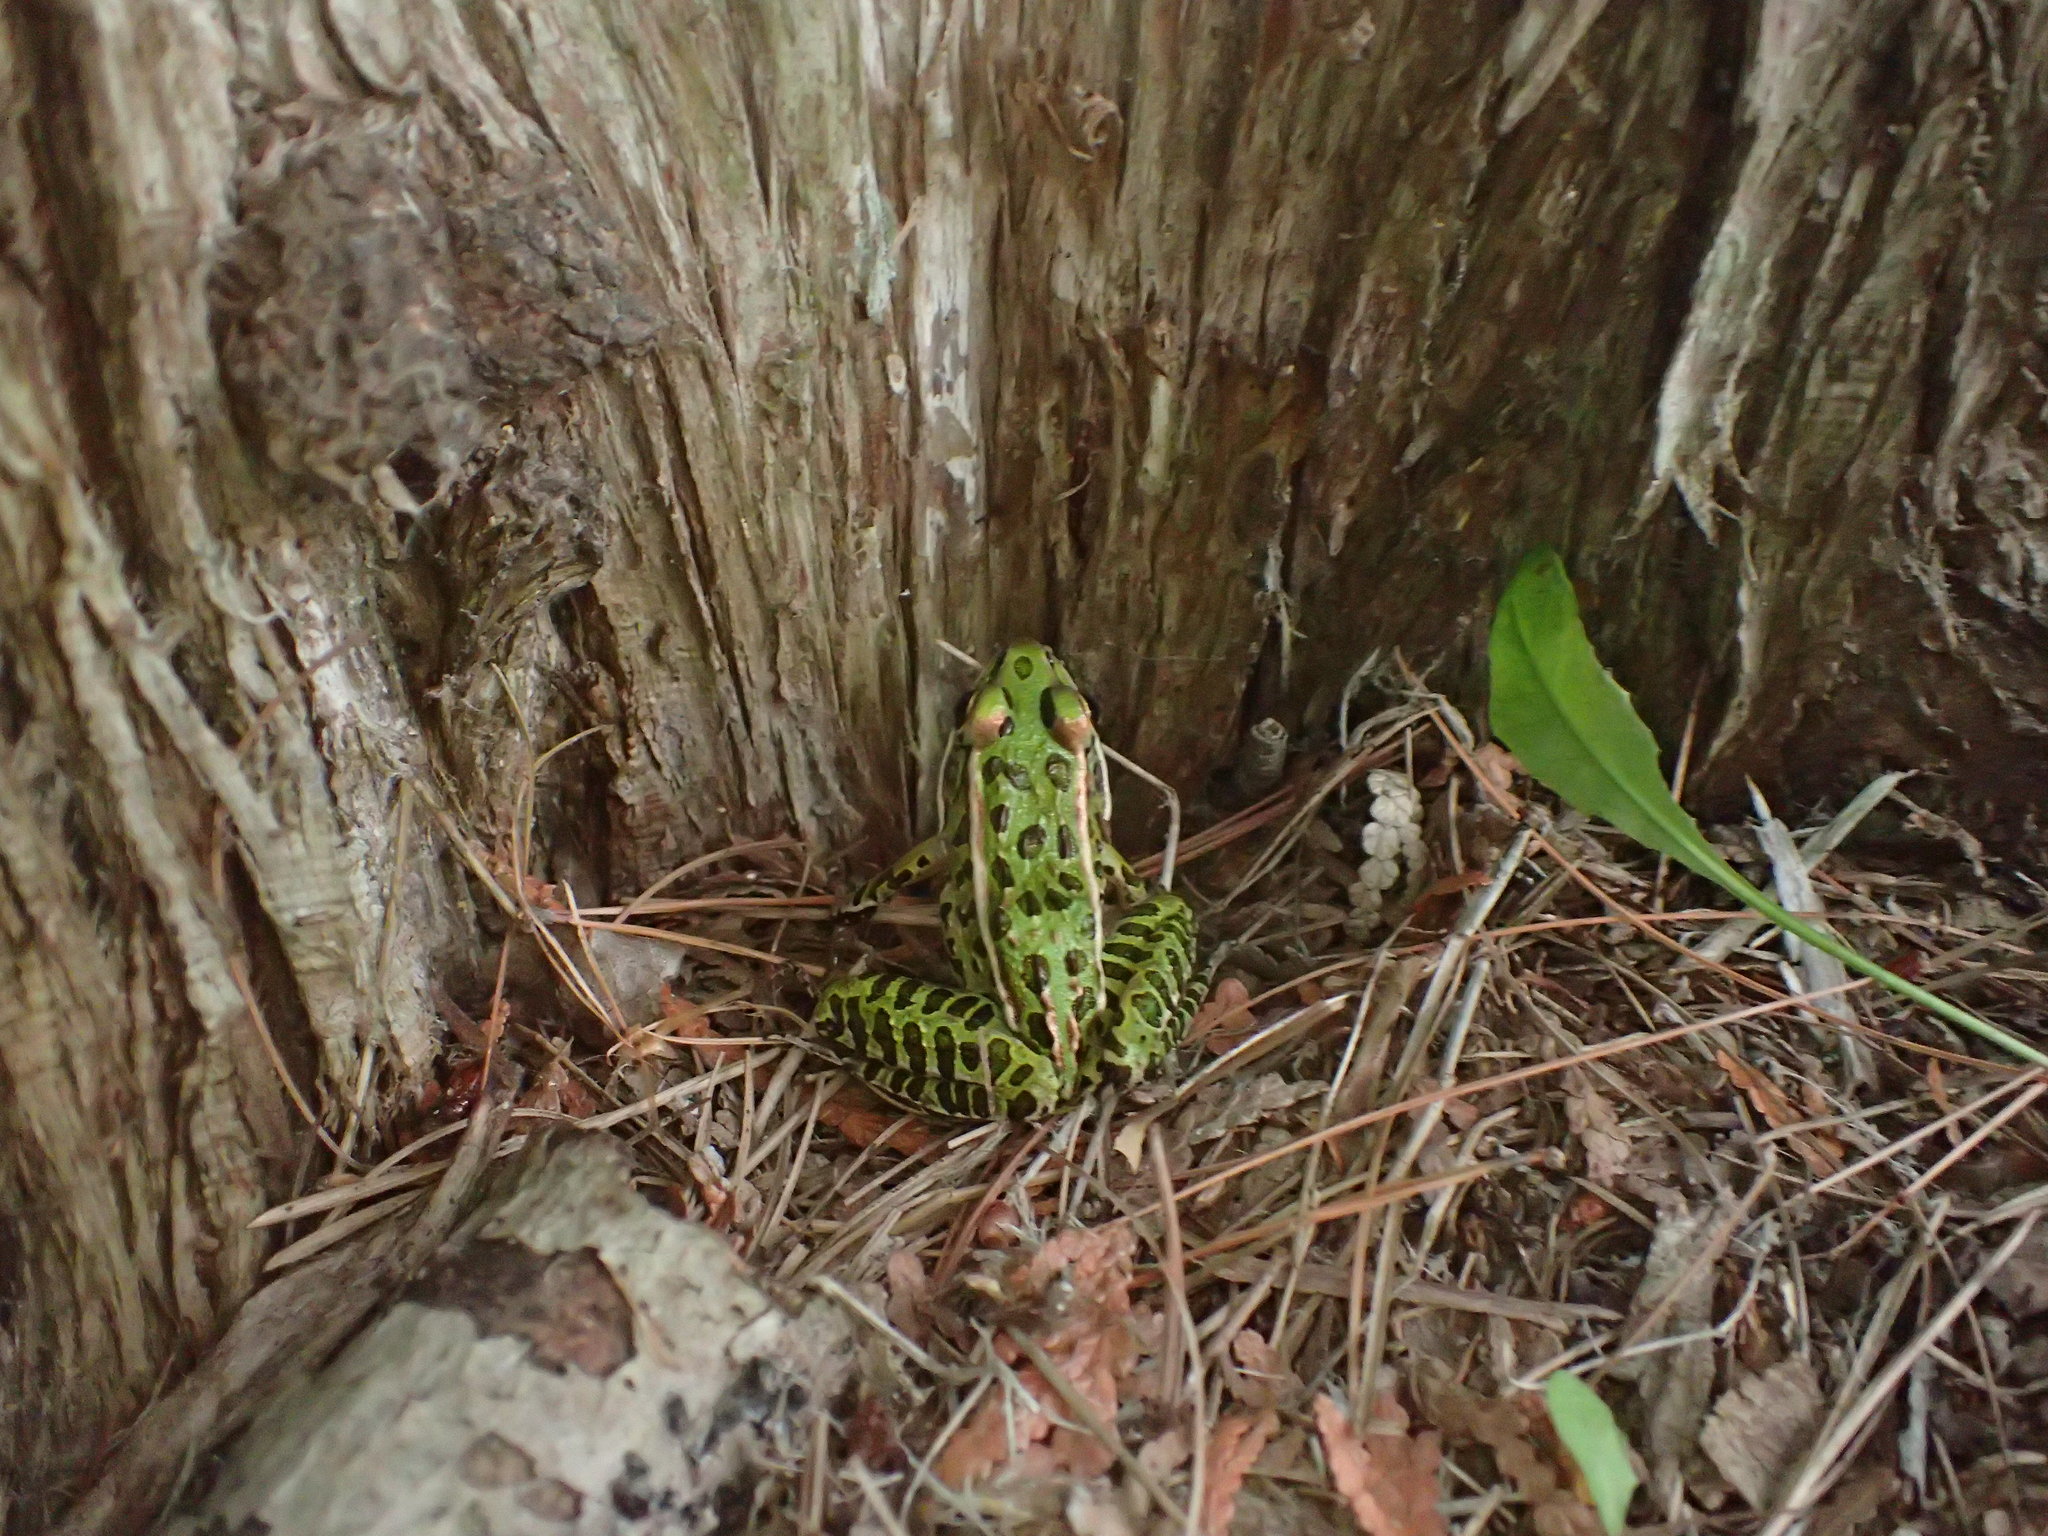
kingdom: Animalia
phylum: Chordata
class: Amphibia
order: Anura
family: Ranidae
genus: Lithobates
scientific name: Lithobates pipiens
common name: Northern leopard frog
